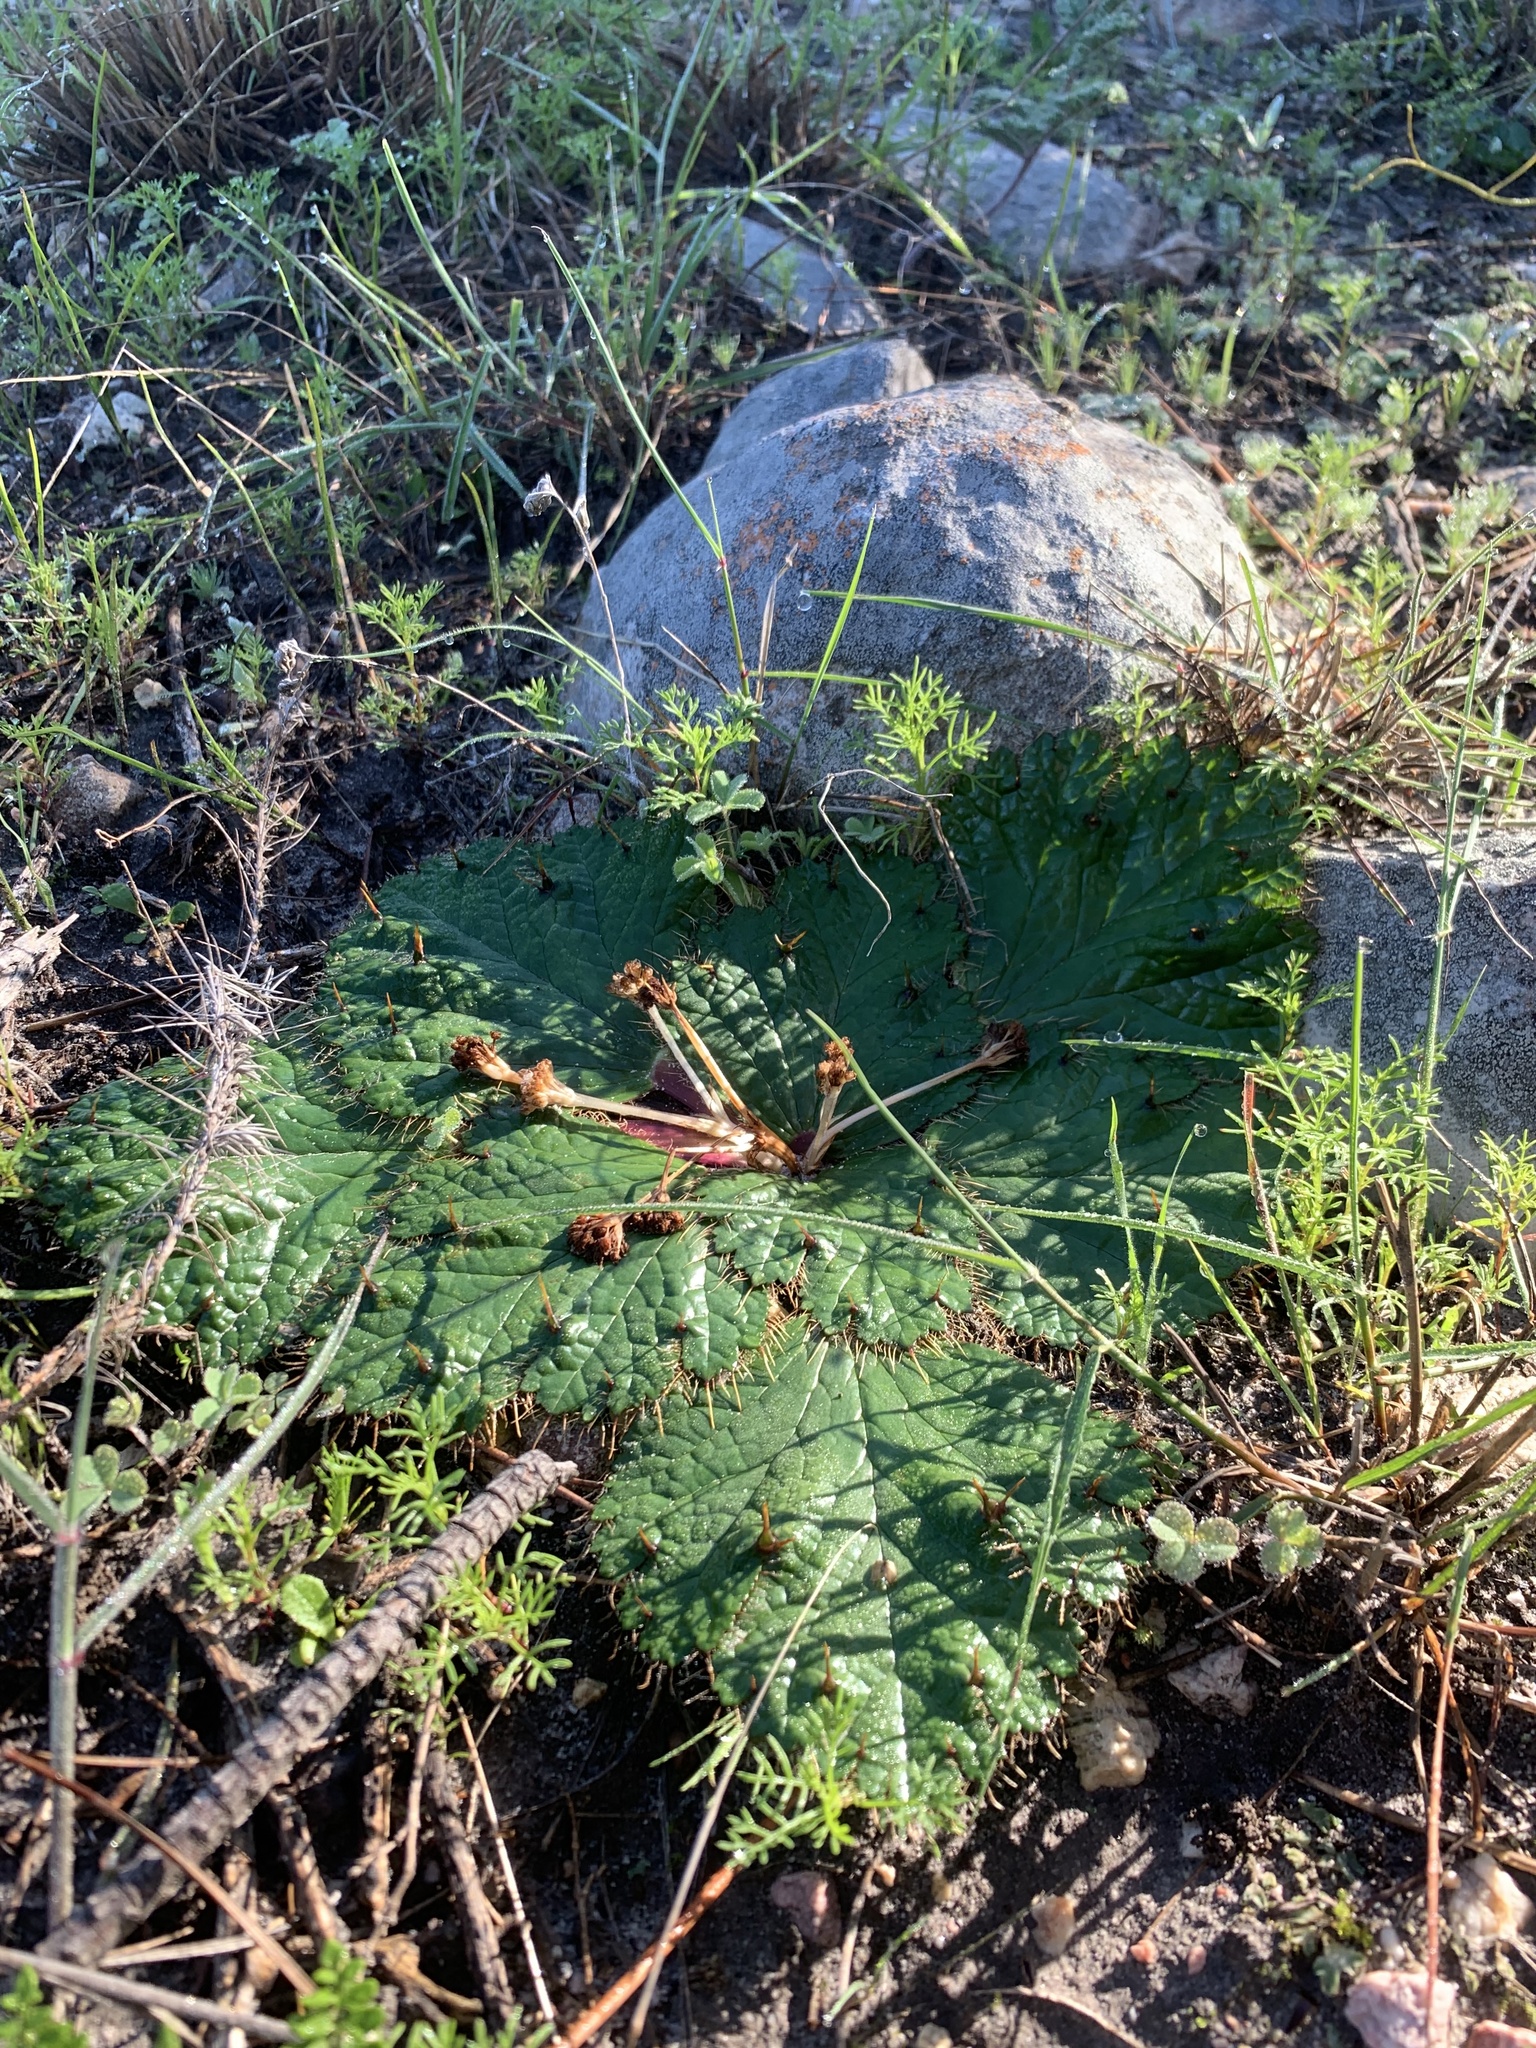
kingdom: Plantae
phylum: Tracheophyta
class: Magnoliopsida
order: Apiales
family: Apiaceae
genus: Arctopus
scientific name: Arctopus echinatus
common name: Platdoring
